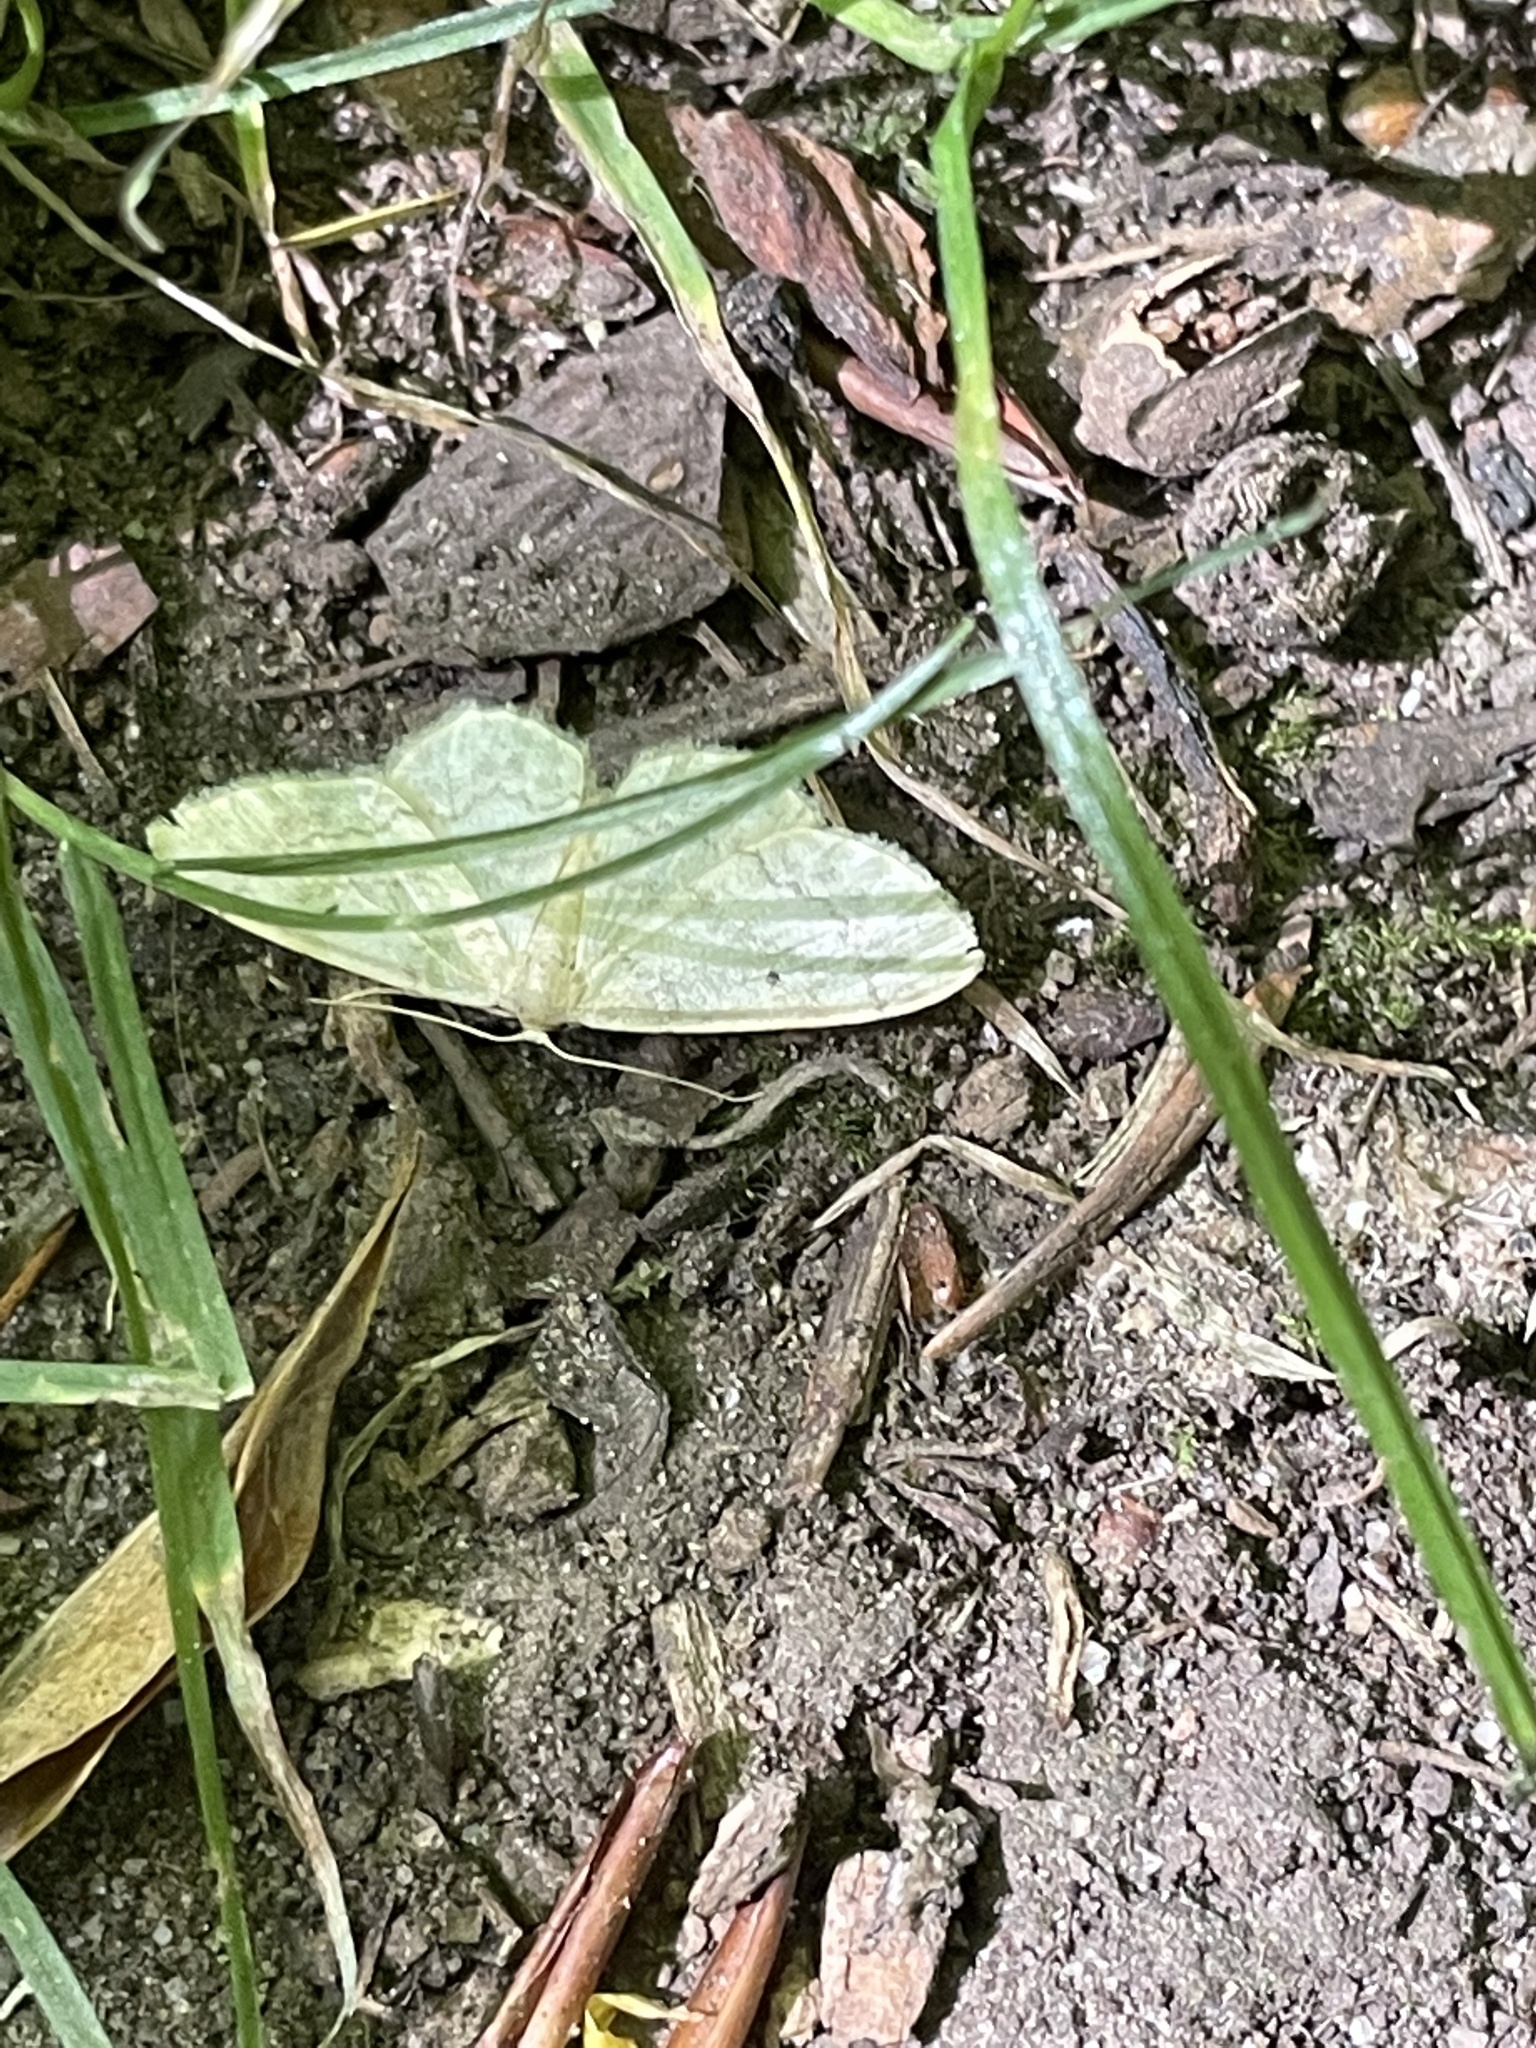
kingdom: Animalia
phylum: Arthropoda
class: Insecta
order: Lepidoptera
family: Geometridae
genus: Idaea
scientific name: Idaea biselata
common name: Small fan-footed wave
